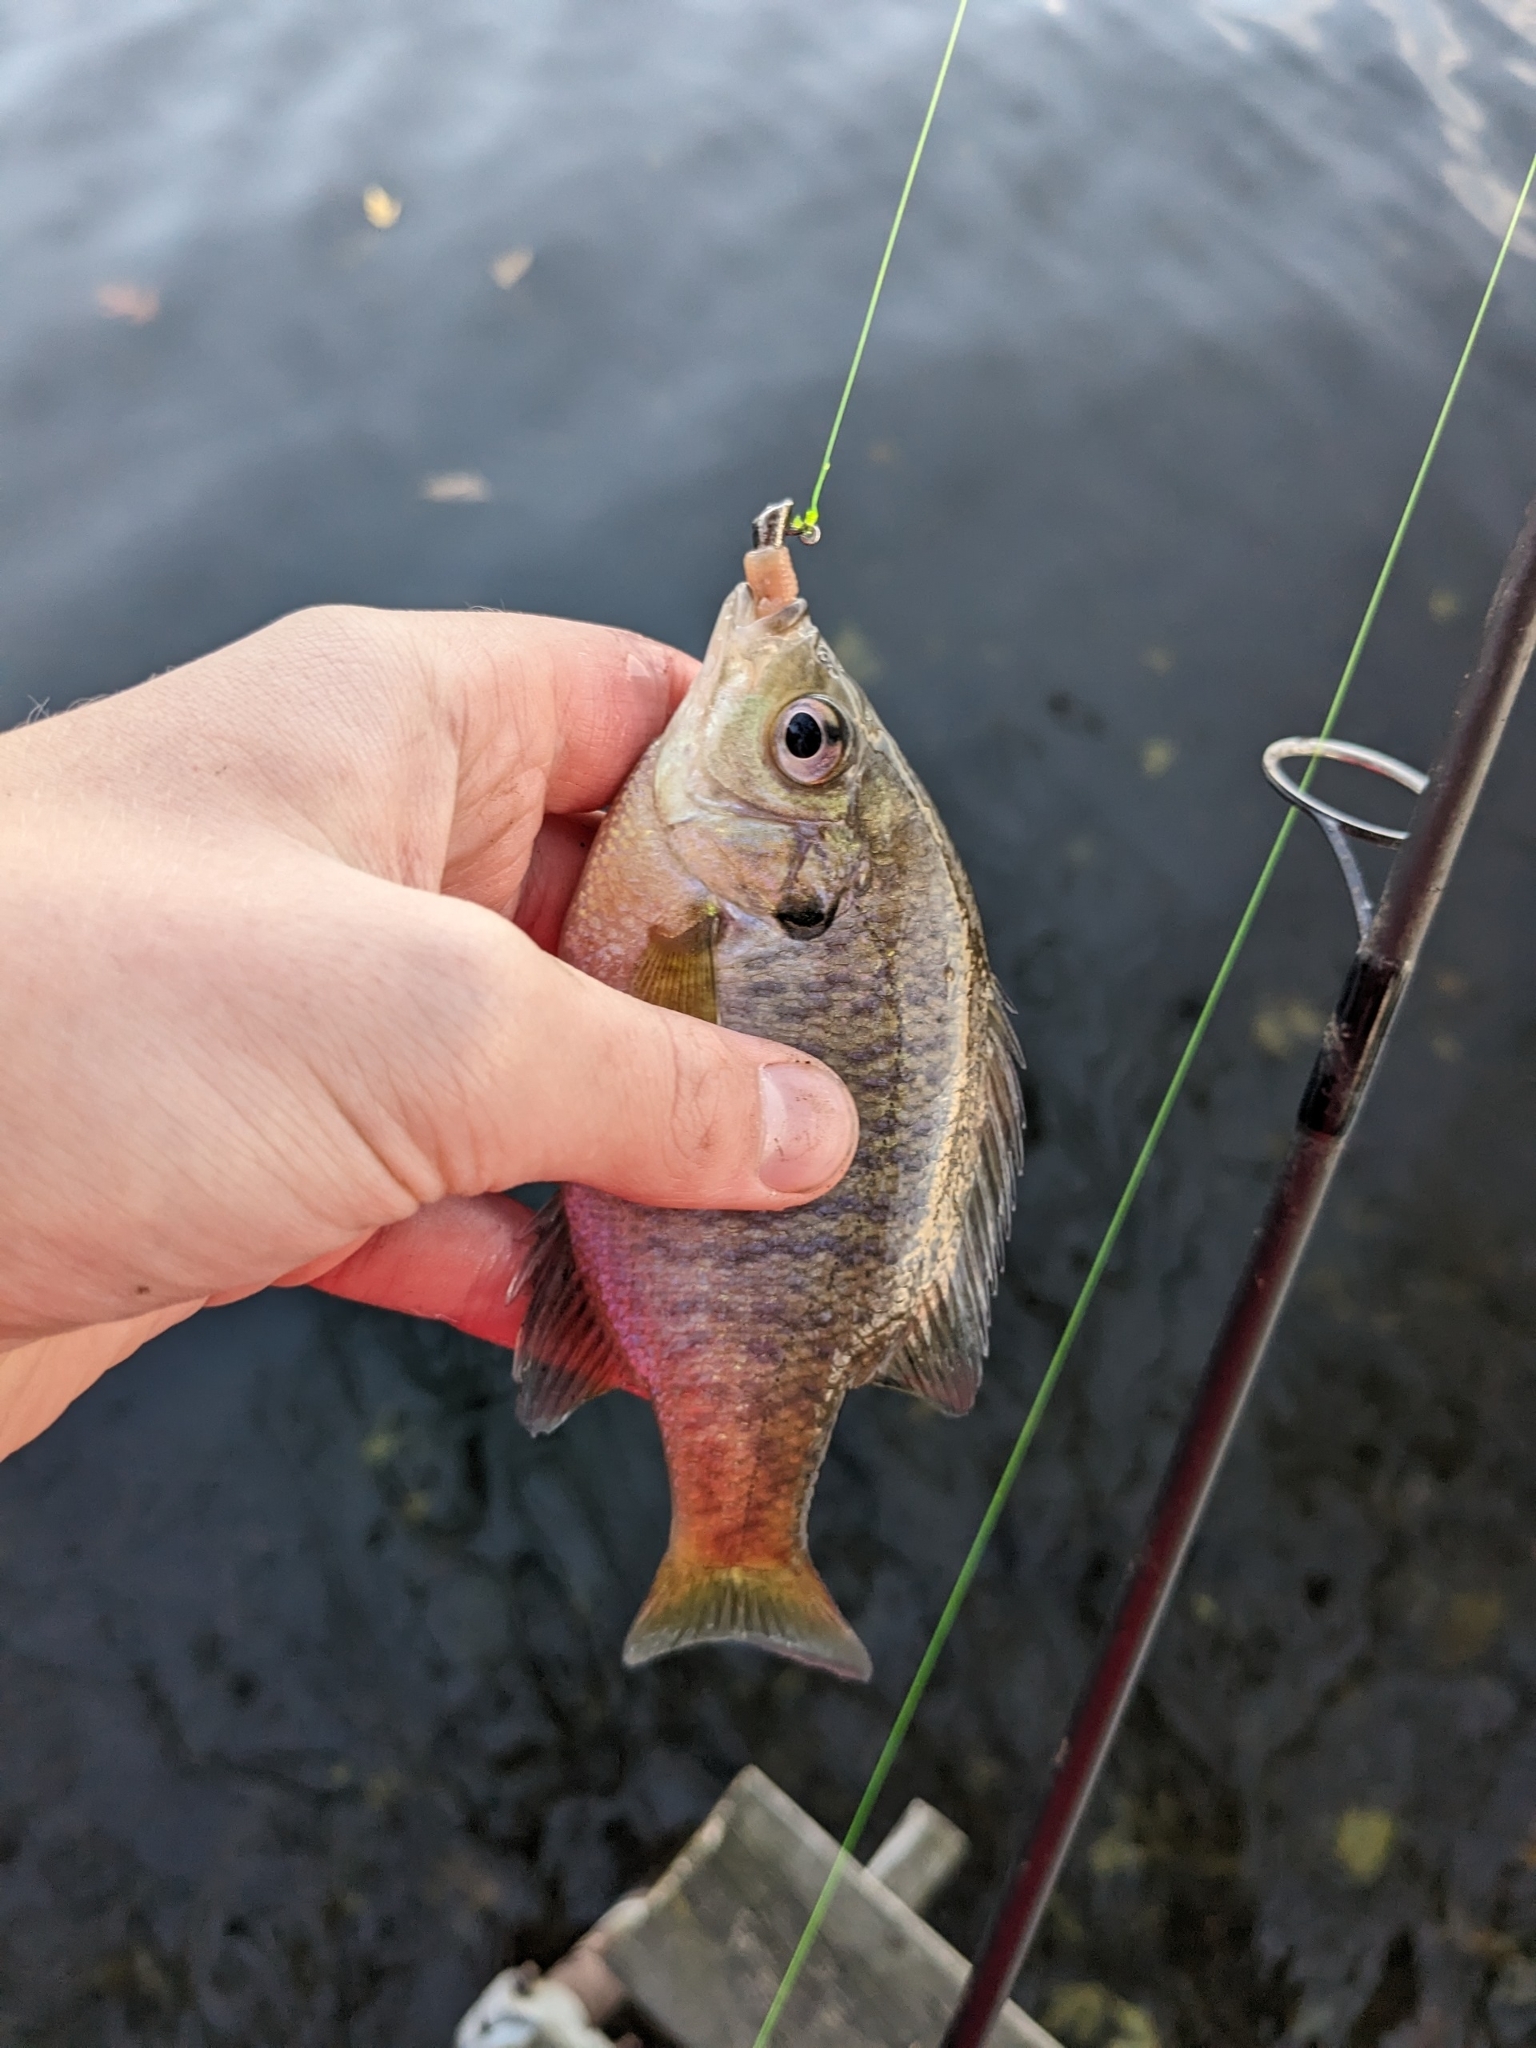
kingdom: Animalia
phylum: Chordata
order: Perciformes
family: Centrarchidae
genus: Lepomis
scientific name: Lepomis macrochirus
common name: Bluegill
